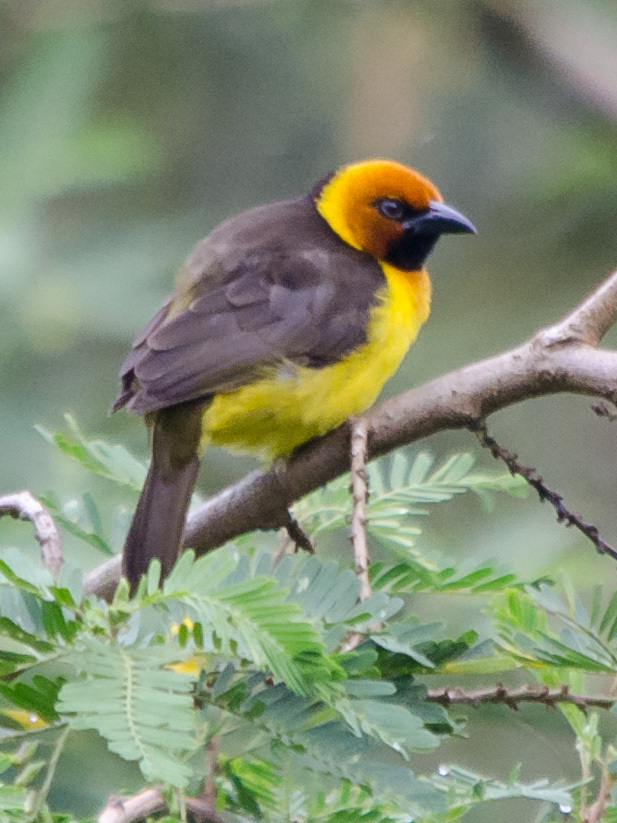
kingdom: Animalia
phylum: Chordata
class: Aves
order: Passeriformes
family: Ploceidae
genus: Ploceus
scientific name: Ploceus nigricollis
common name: Black-necked weaver
